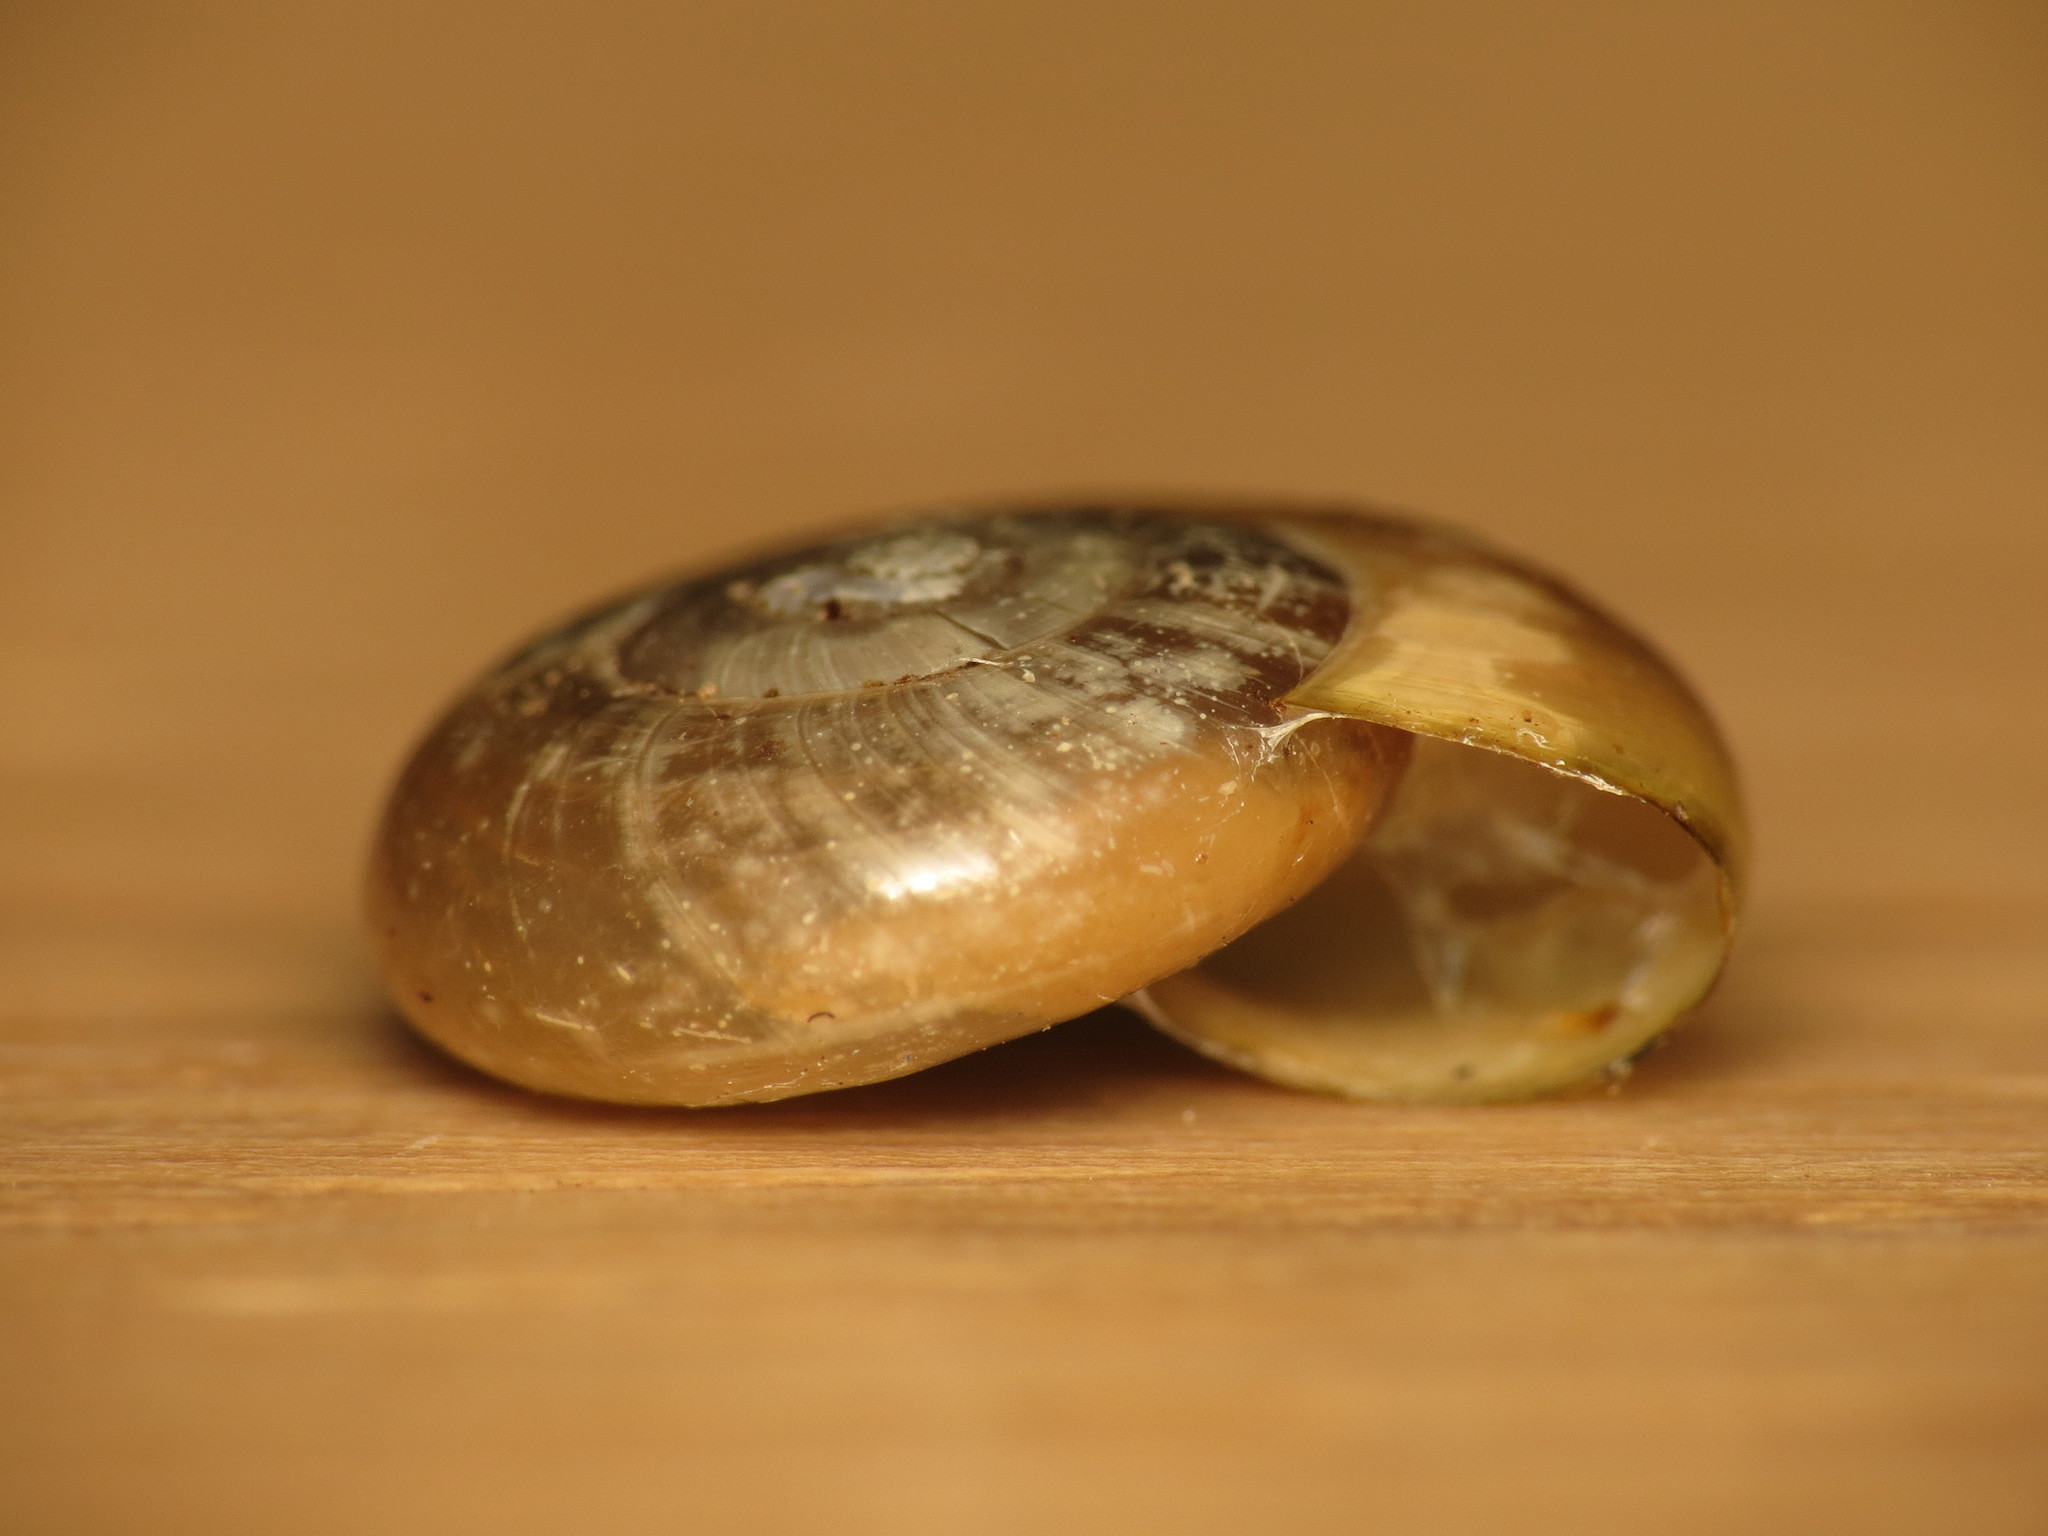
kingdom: Animalia
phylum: Mollusca
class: Gastropoda
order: Stylommatophora
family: Gastrodontidae
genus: Aegopinella
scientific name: Aegopinella nitidula
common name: Smooth glass snail
